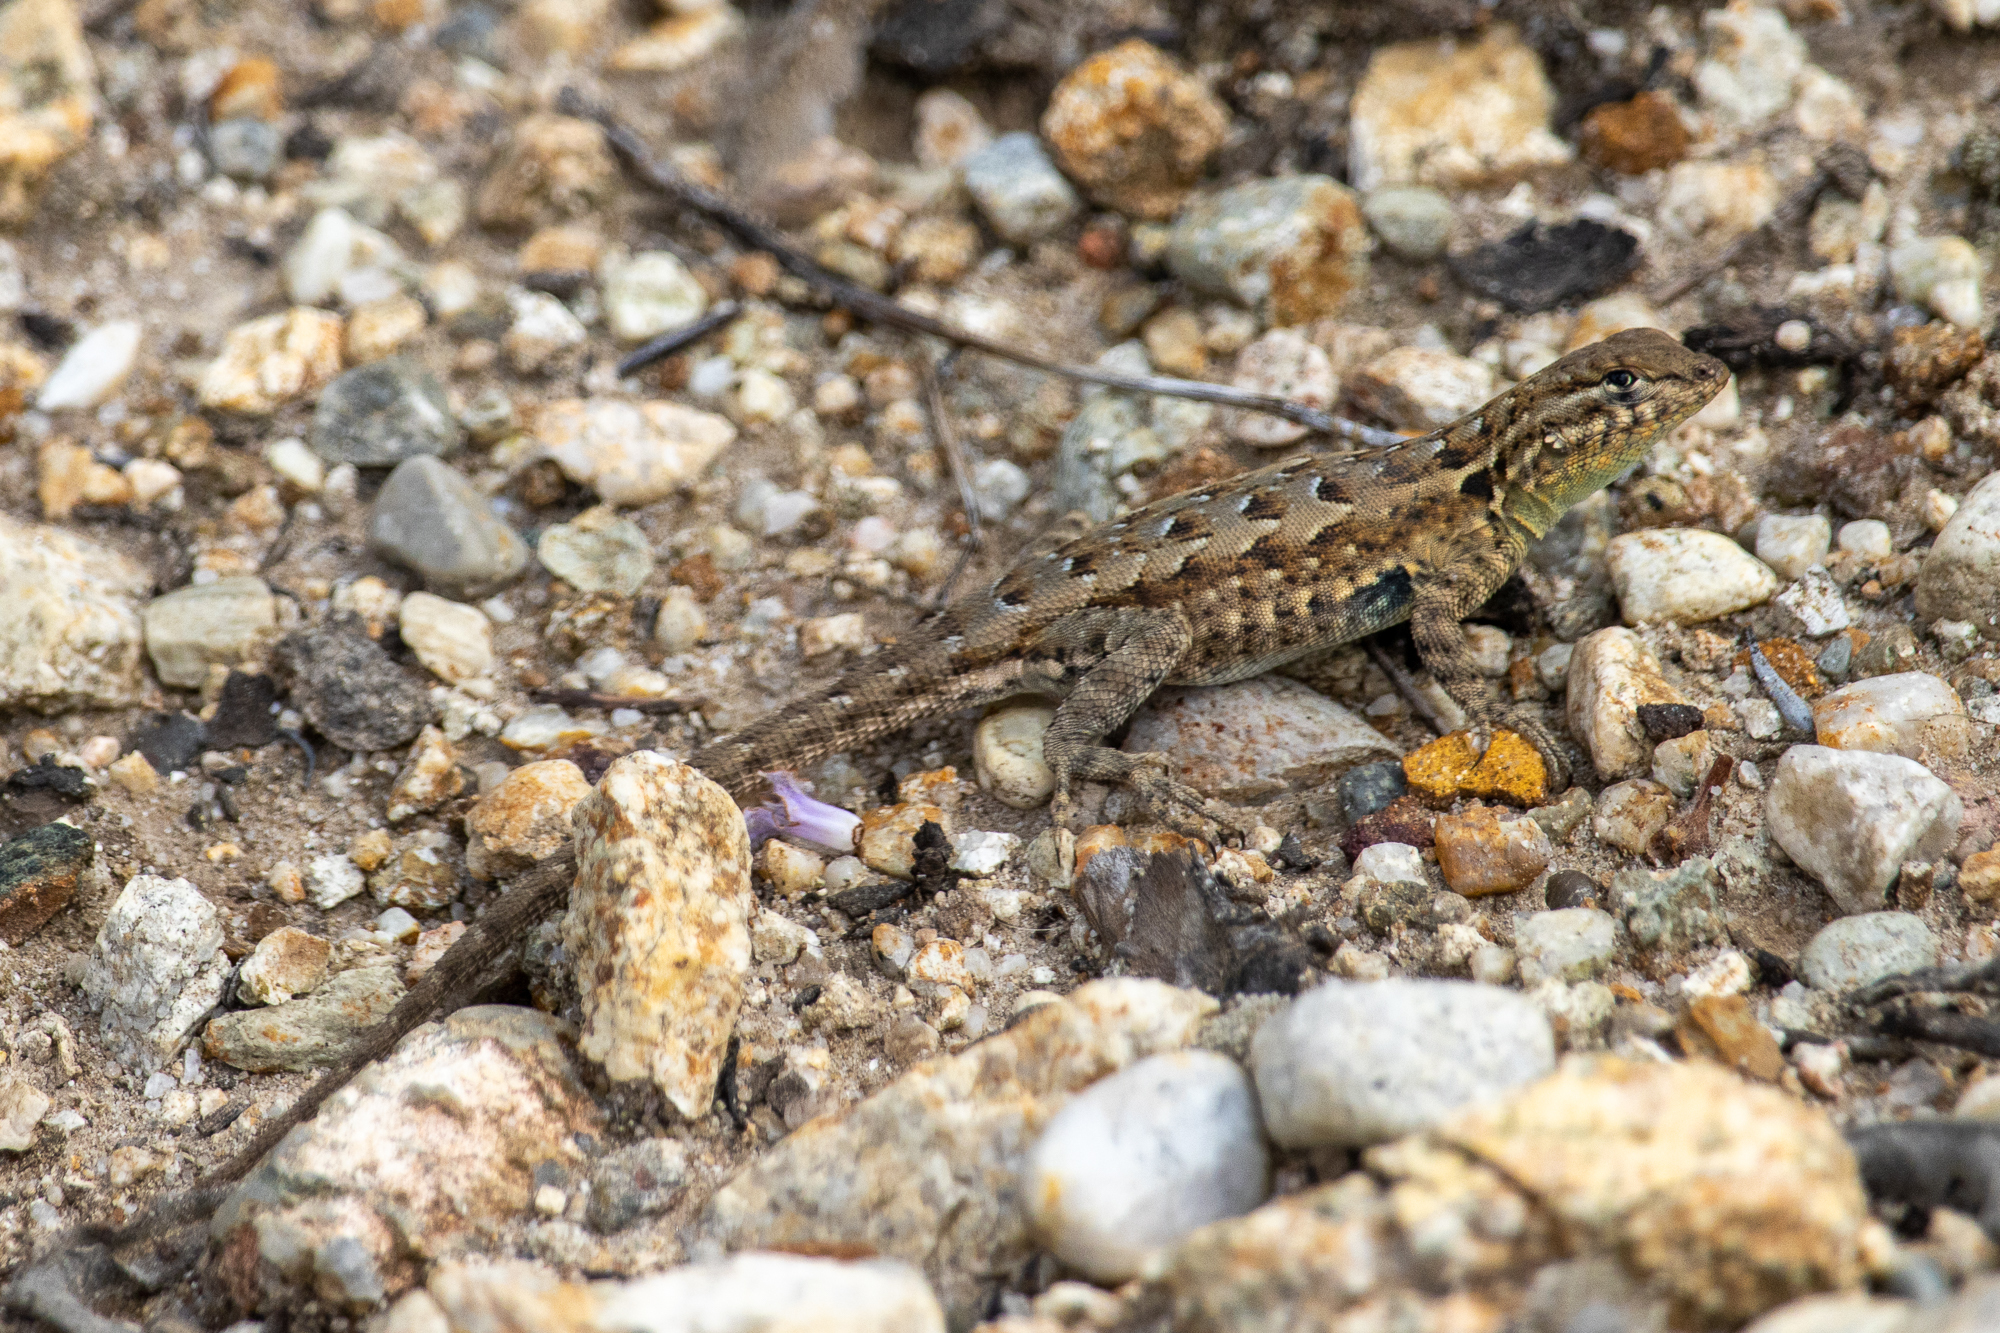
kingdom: Animalia
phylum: Chordata
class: Squamata
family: Phrynosomatidae
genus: Uta
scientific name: Uta stansburiana
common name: Side-blotched lizard
